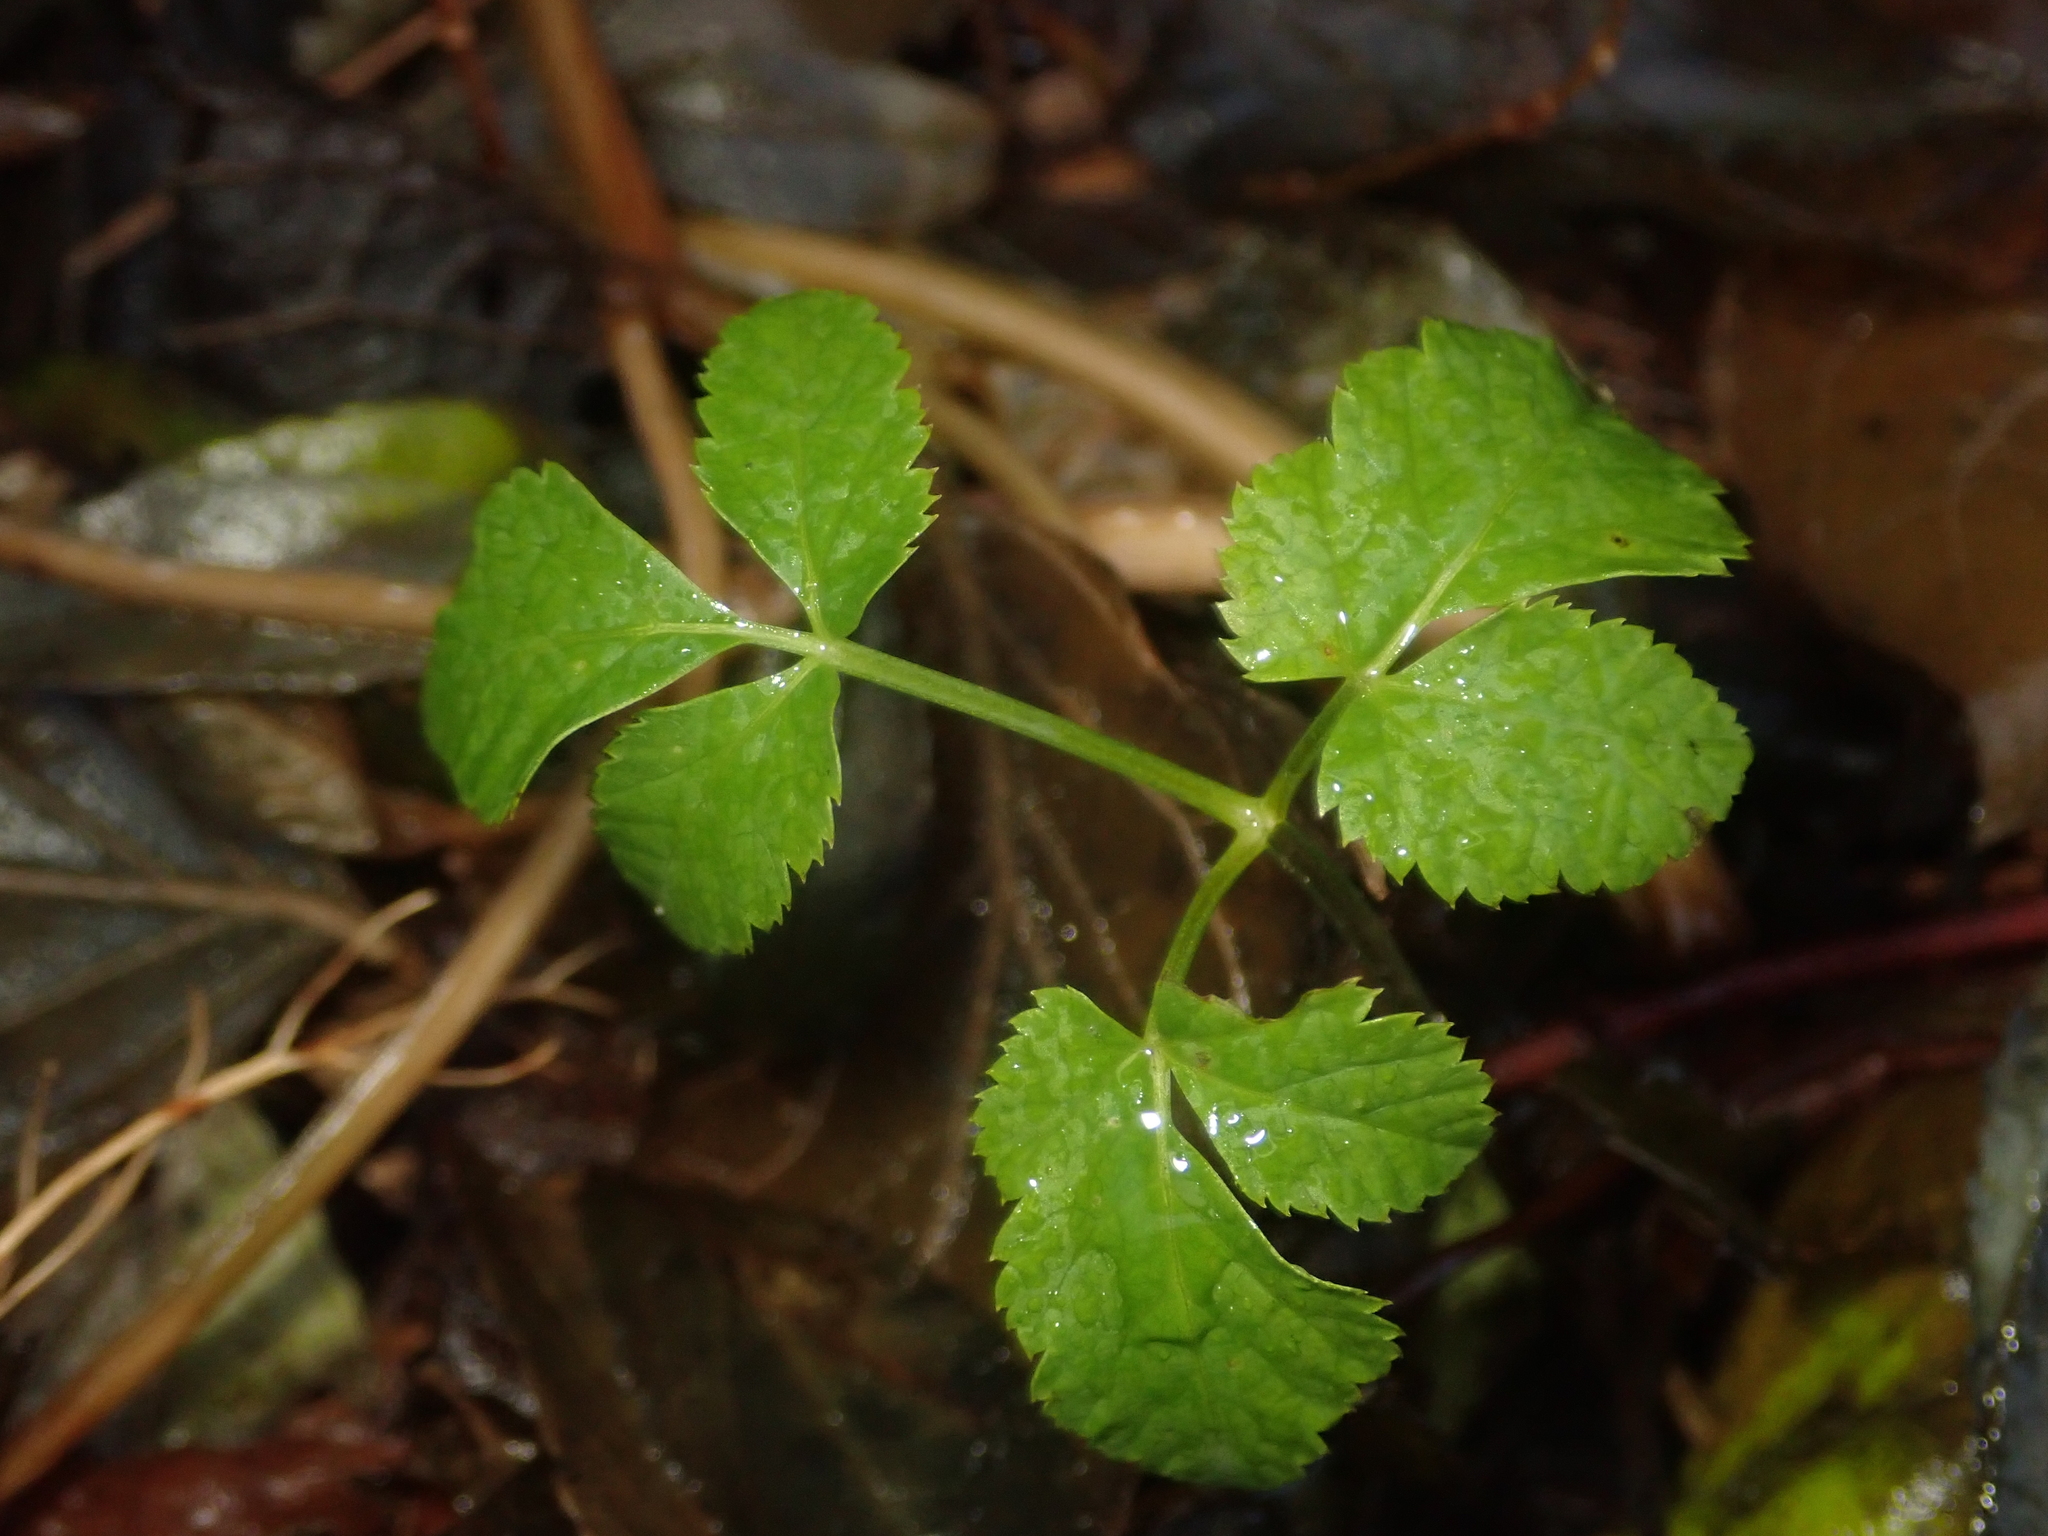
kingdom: Plantae
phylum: Tracheophyta
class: Magnoliopsida
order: Apiales
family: Apiaceae
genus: Aegopodium
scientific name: Aegopodium podagraria
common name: Ground-elder
